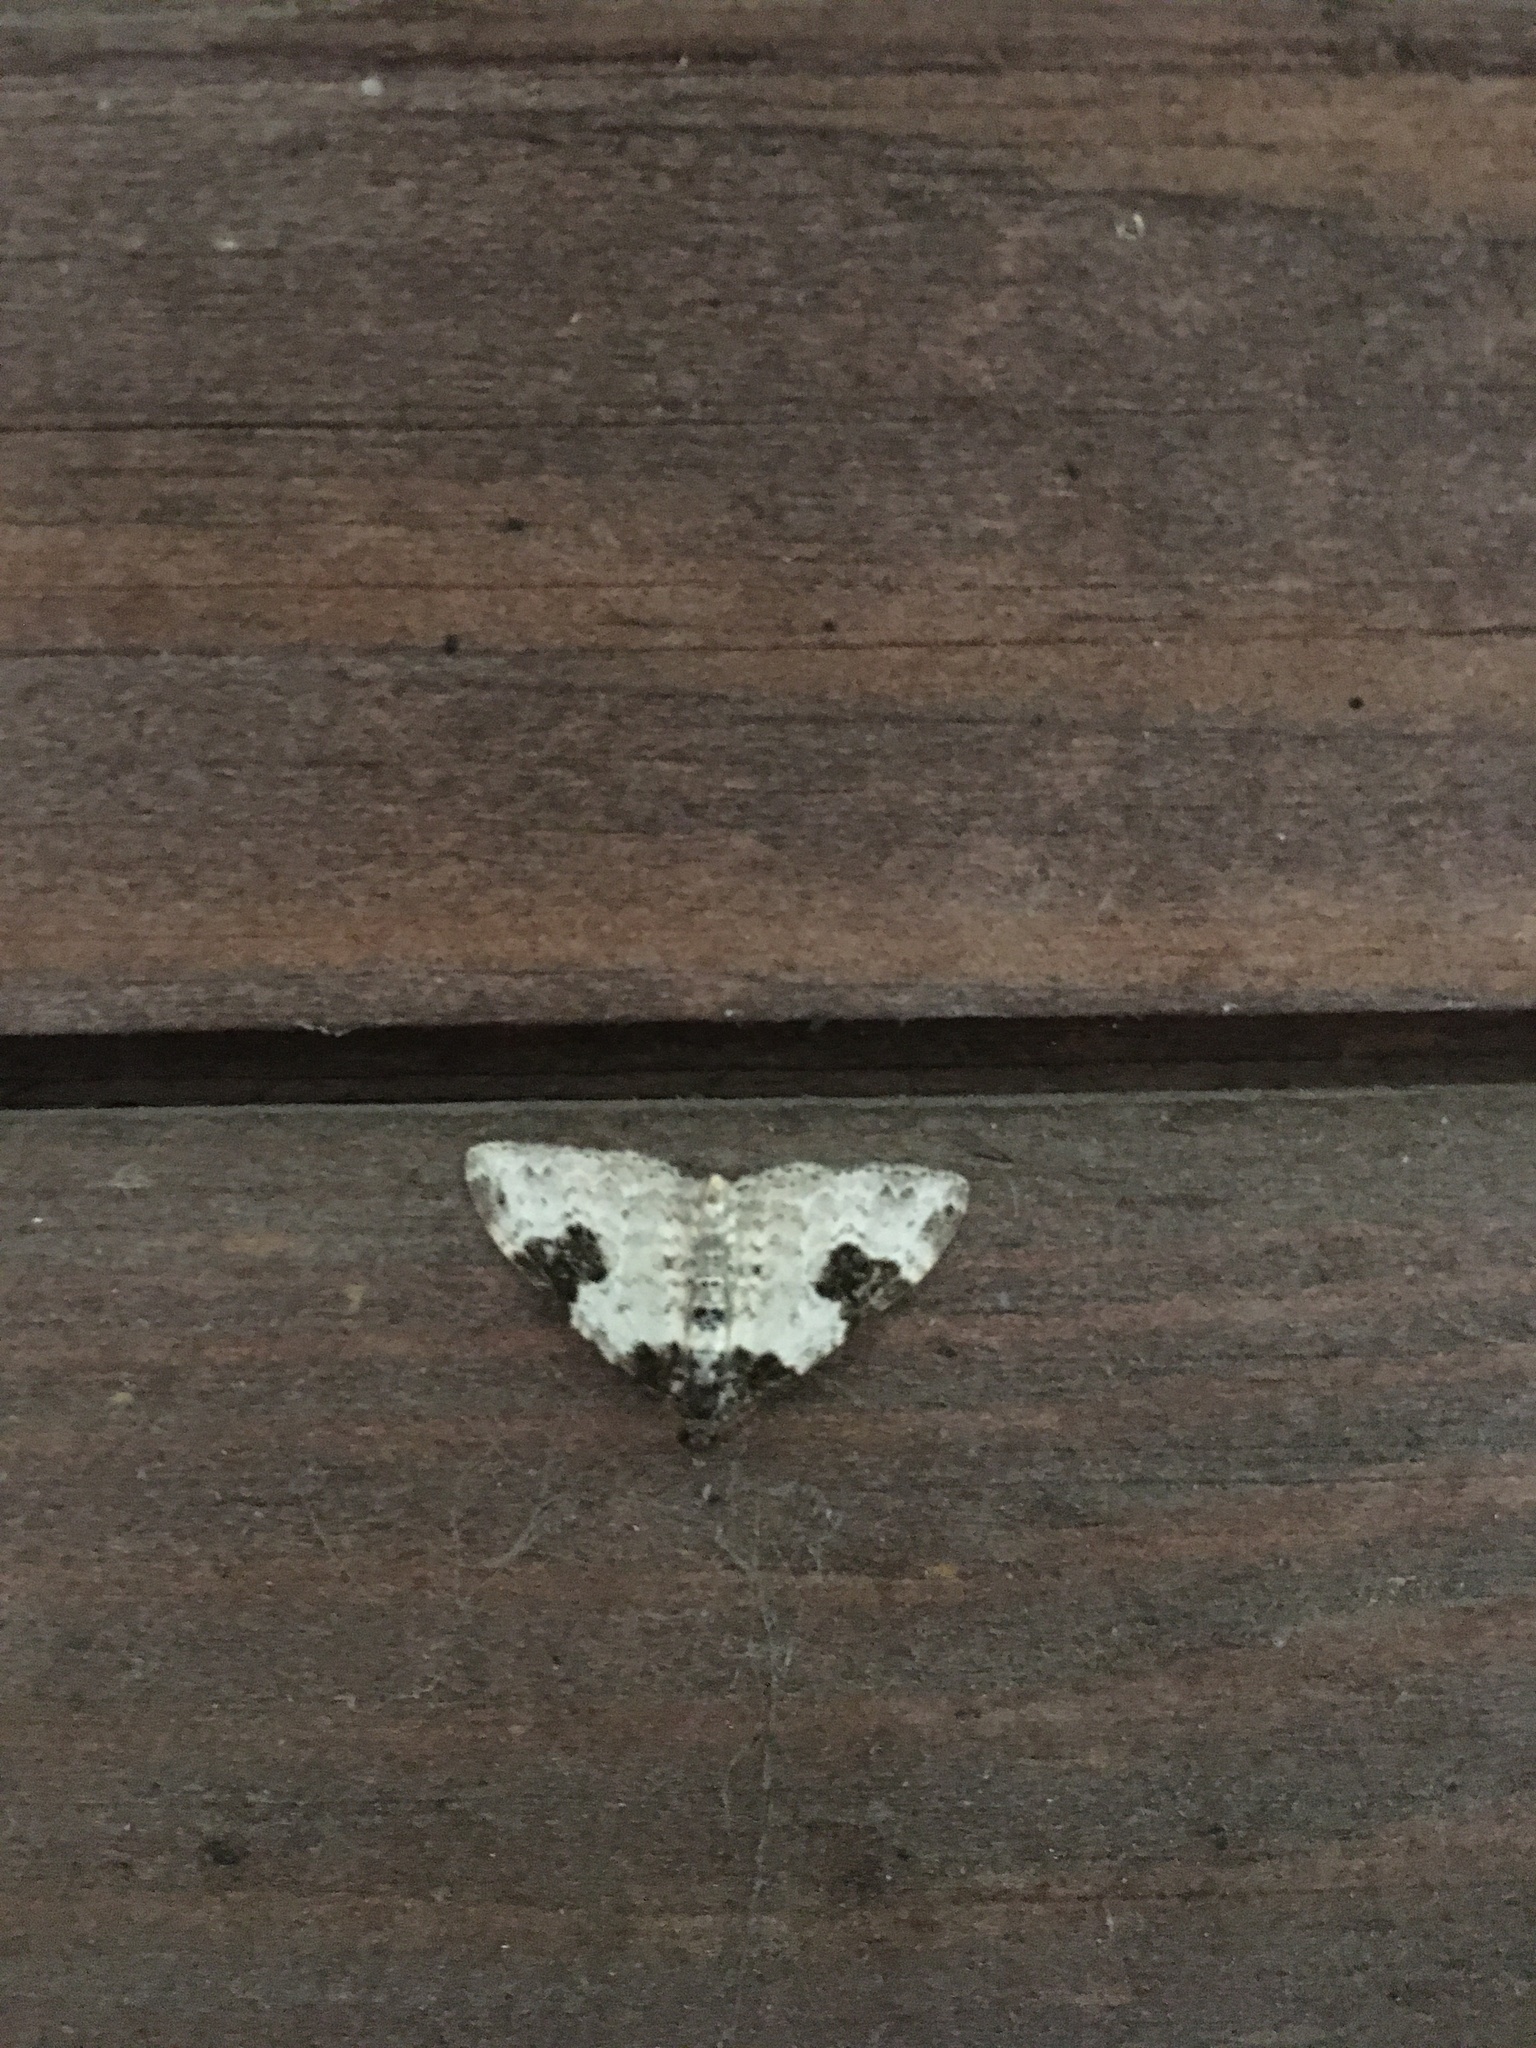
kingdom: Animalia
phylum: Arthropoda
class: Insecta
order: Lepidoptera
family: Geometridae
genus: Xanthorhoe
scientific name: Xanthorhoe fluctuata
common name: Garden carpet
